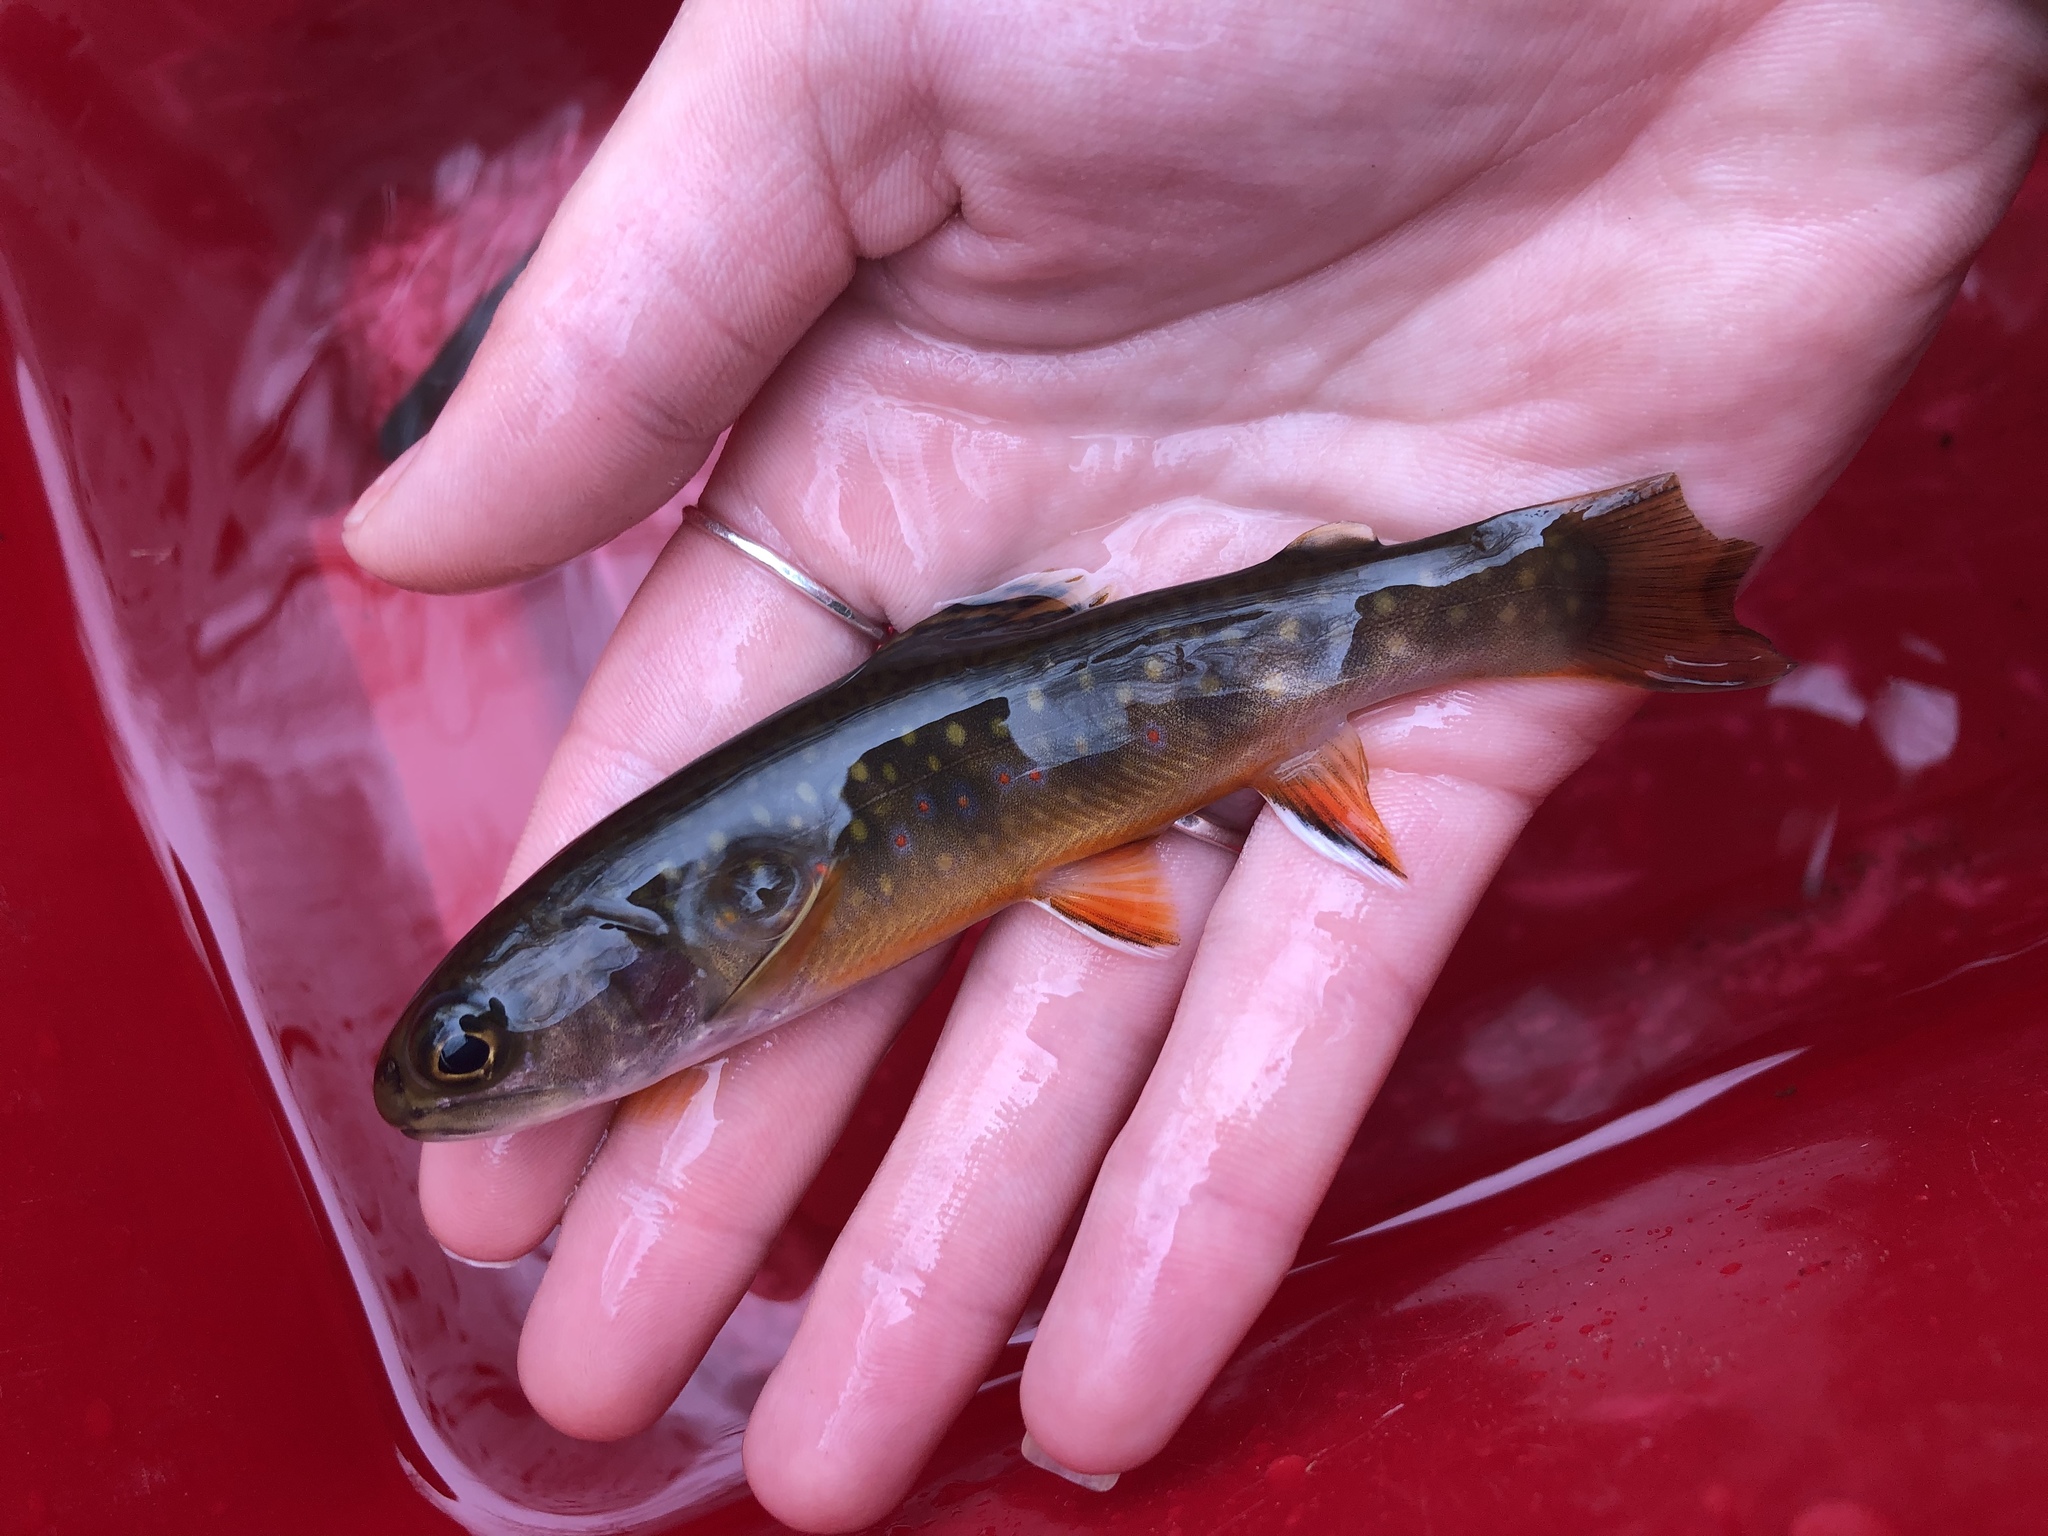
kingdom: Animalia
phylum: Chordata
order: Salmoniformes
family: Salmonidae
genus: Salvelinus
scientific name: Salvelinus fontinalis
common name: Brook trout
